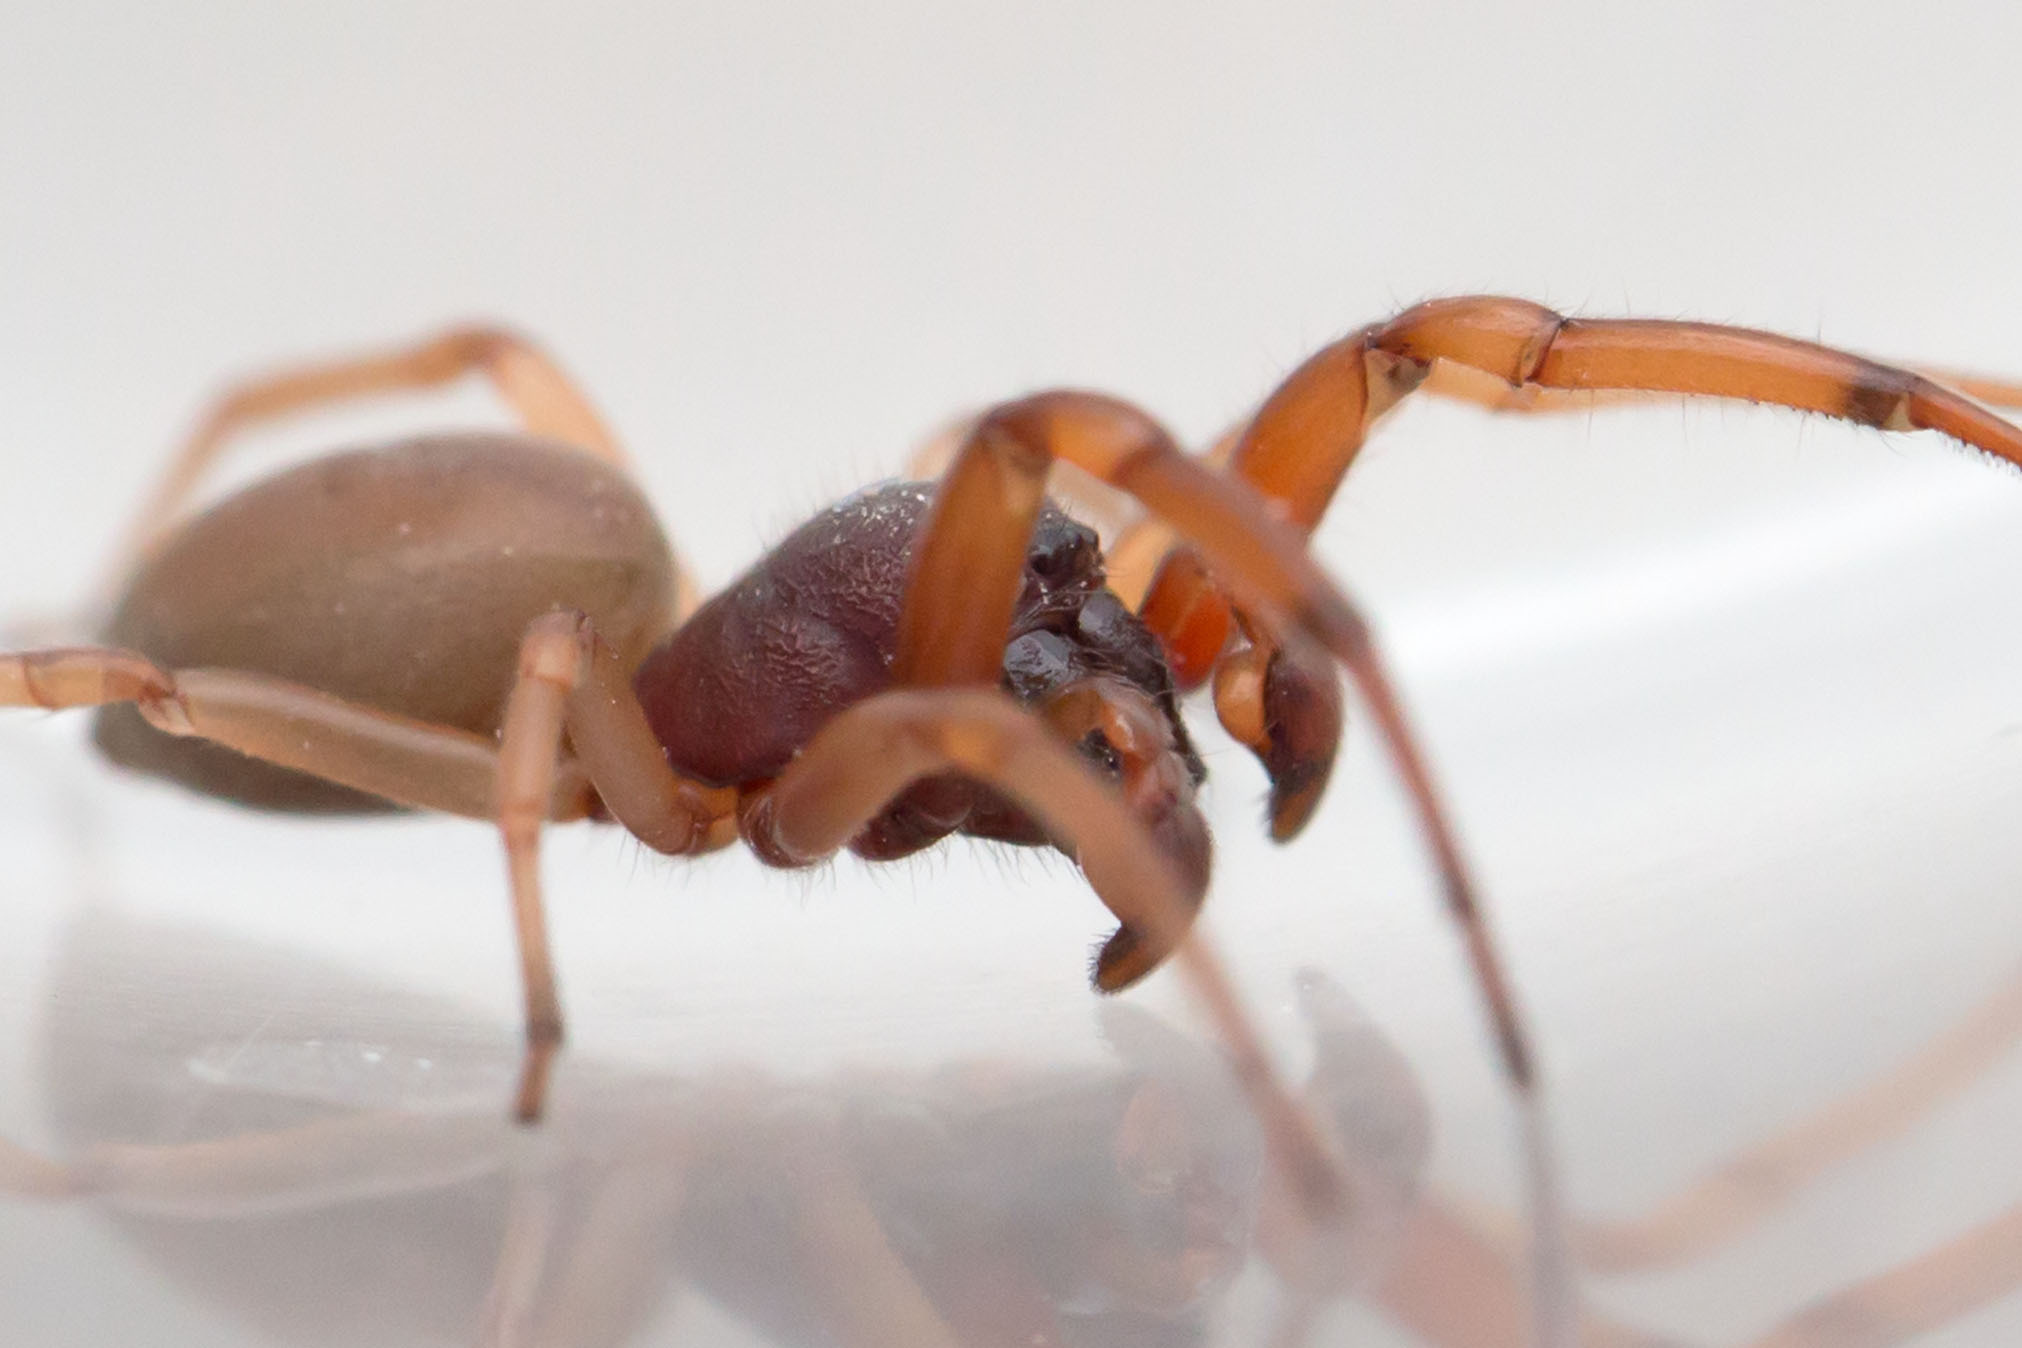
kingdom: Animalia
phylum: Arthropoda
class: Arachnida
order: Araneae
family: Trachelidae
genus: Trachelas
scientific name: Trachelas tranquillus
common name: Broad-faced sac spider
